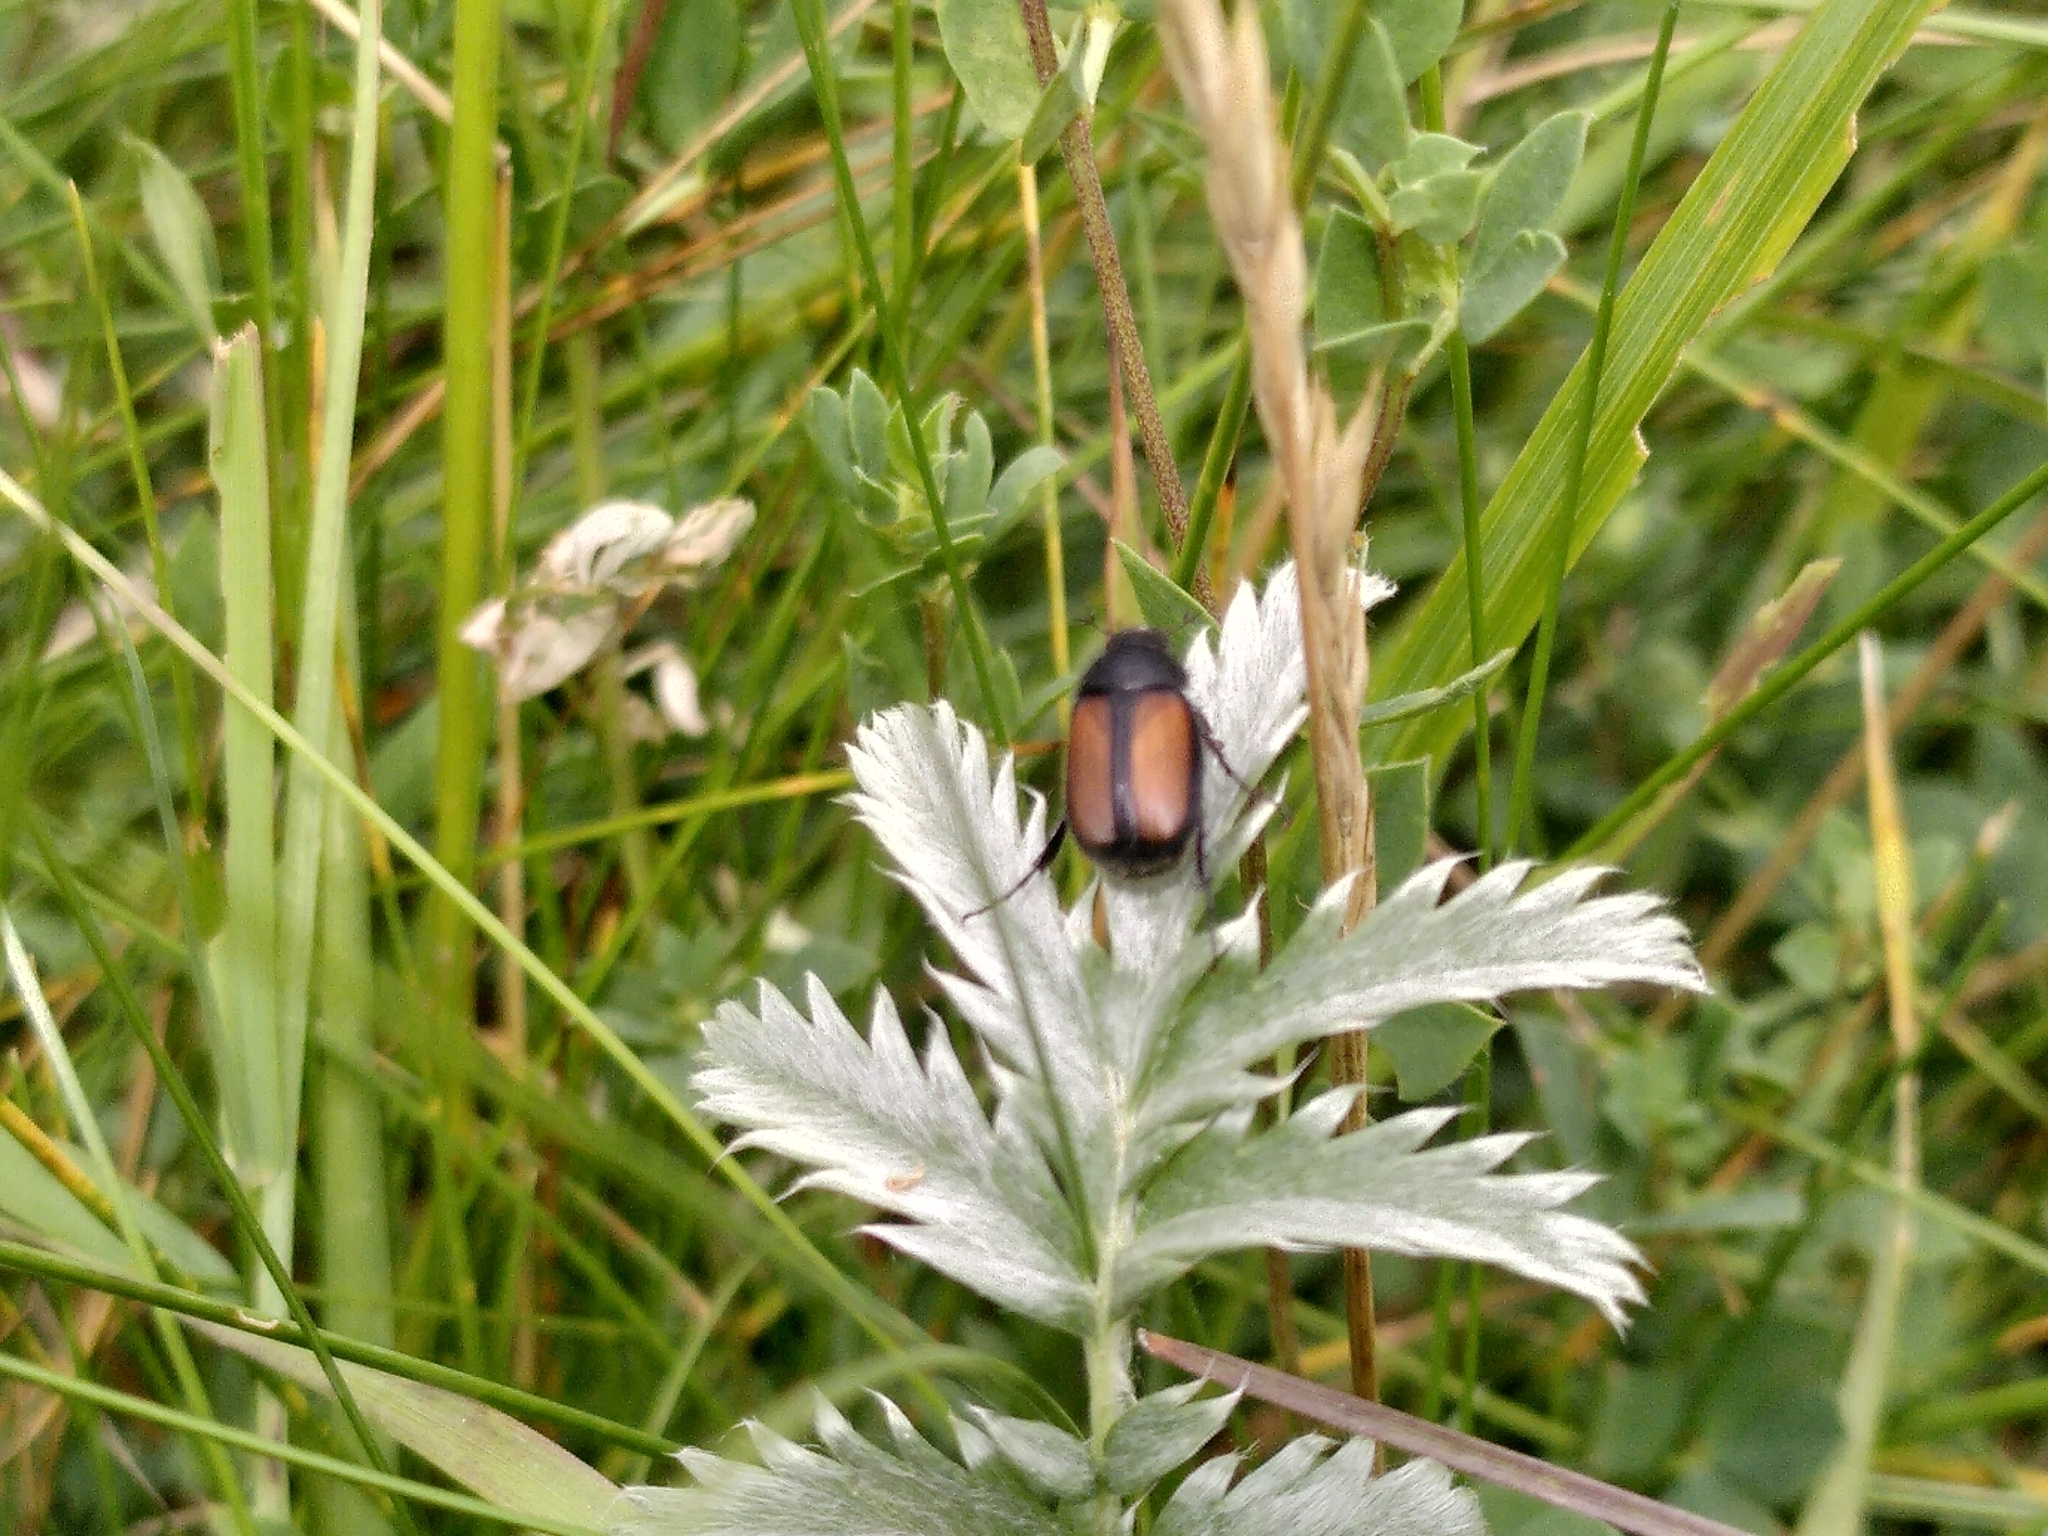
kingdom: Animalia
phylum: Arthropoda
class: Insecta
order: Coleoptera
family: Scarabaeidae
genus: Omaloplia
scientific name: Omaloplia ruricola
